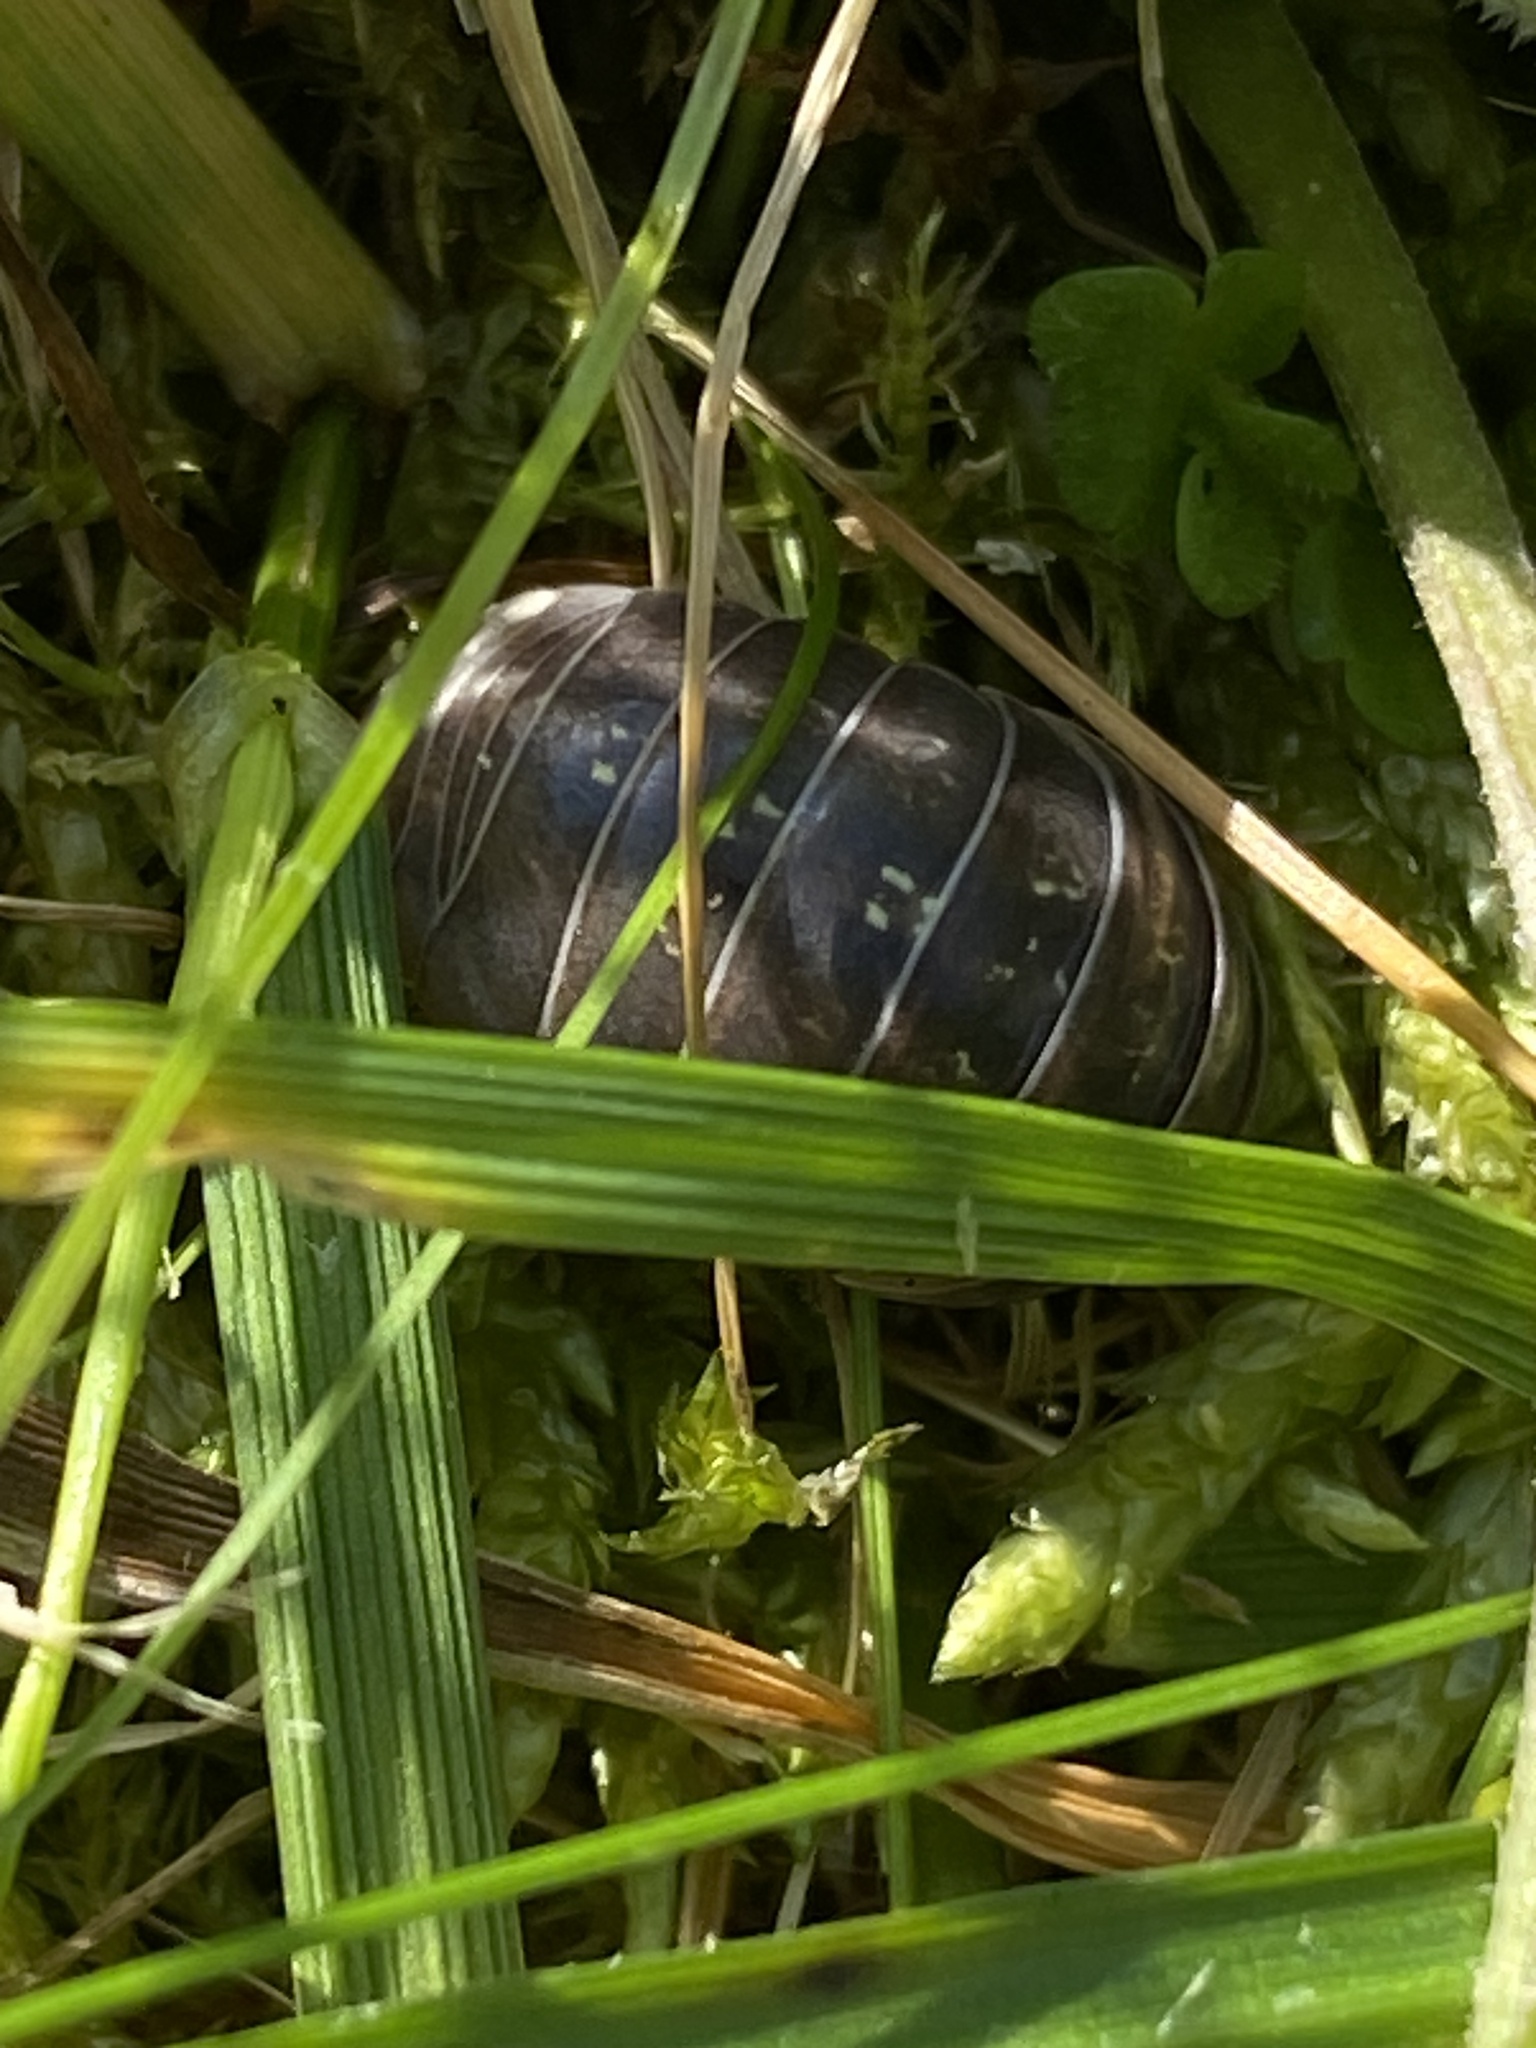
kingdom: Animalia
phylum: Arthropoda
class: Malacostraca
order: Isopoda
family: Armadillidiidae
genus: Armadillidium
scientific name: Armadillidium vulgare
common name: Common pill woodlouse
